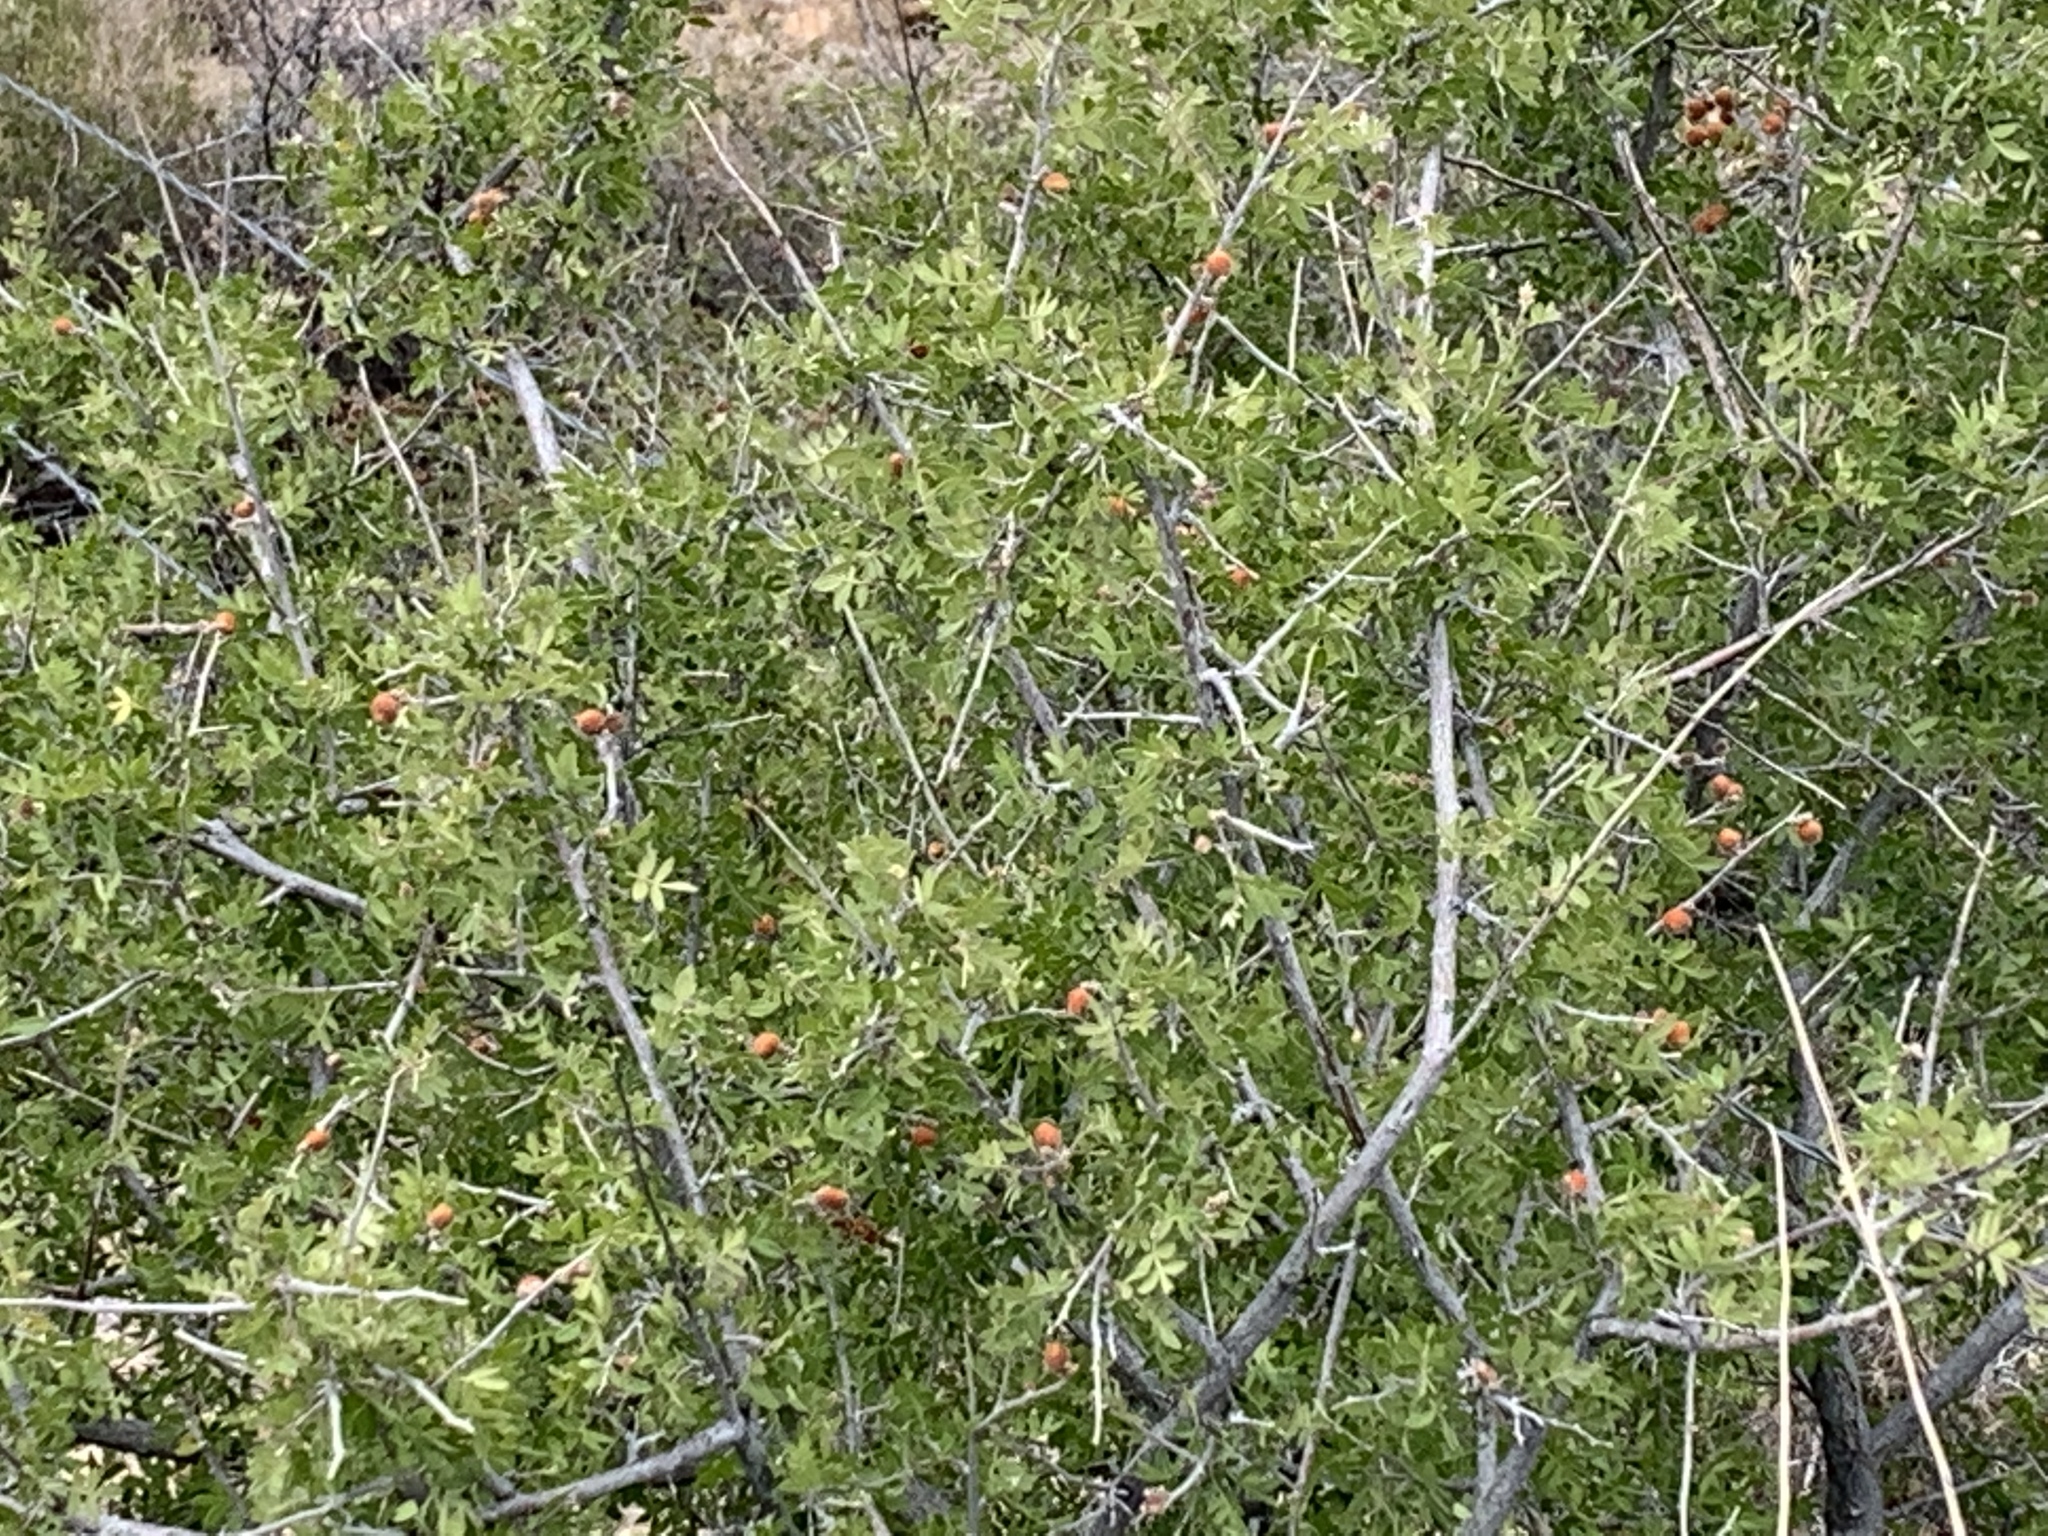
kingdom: Plantae
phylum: Tracheophyta
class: Magnoliopsida
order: Sapindales
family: Anacardiaceae
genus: Rhus
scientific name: Rhus microphylla
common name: Desert sumac
